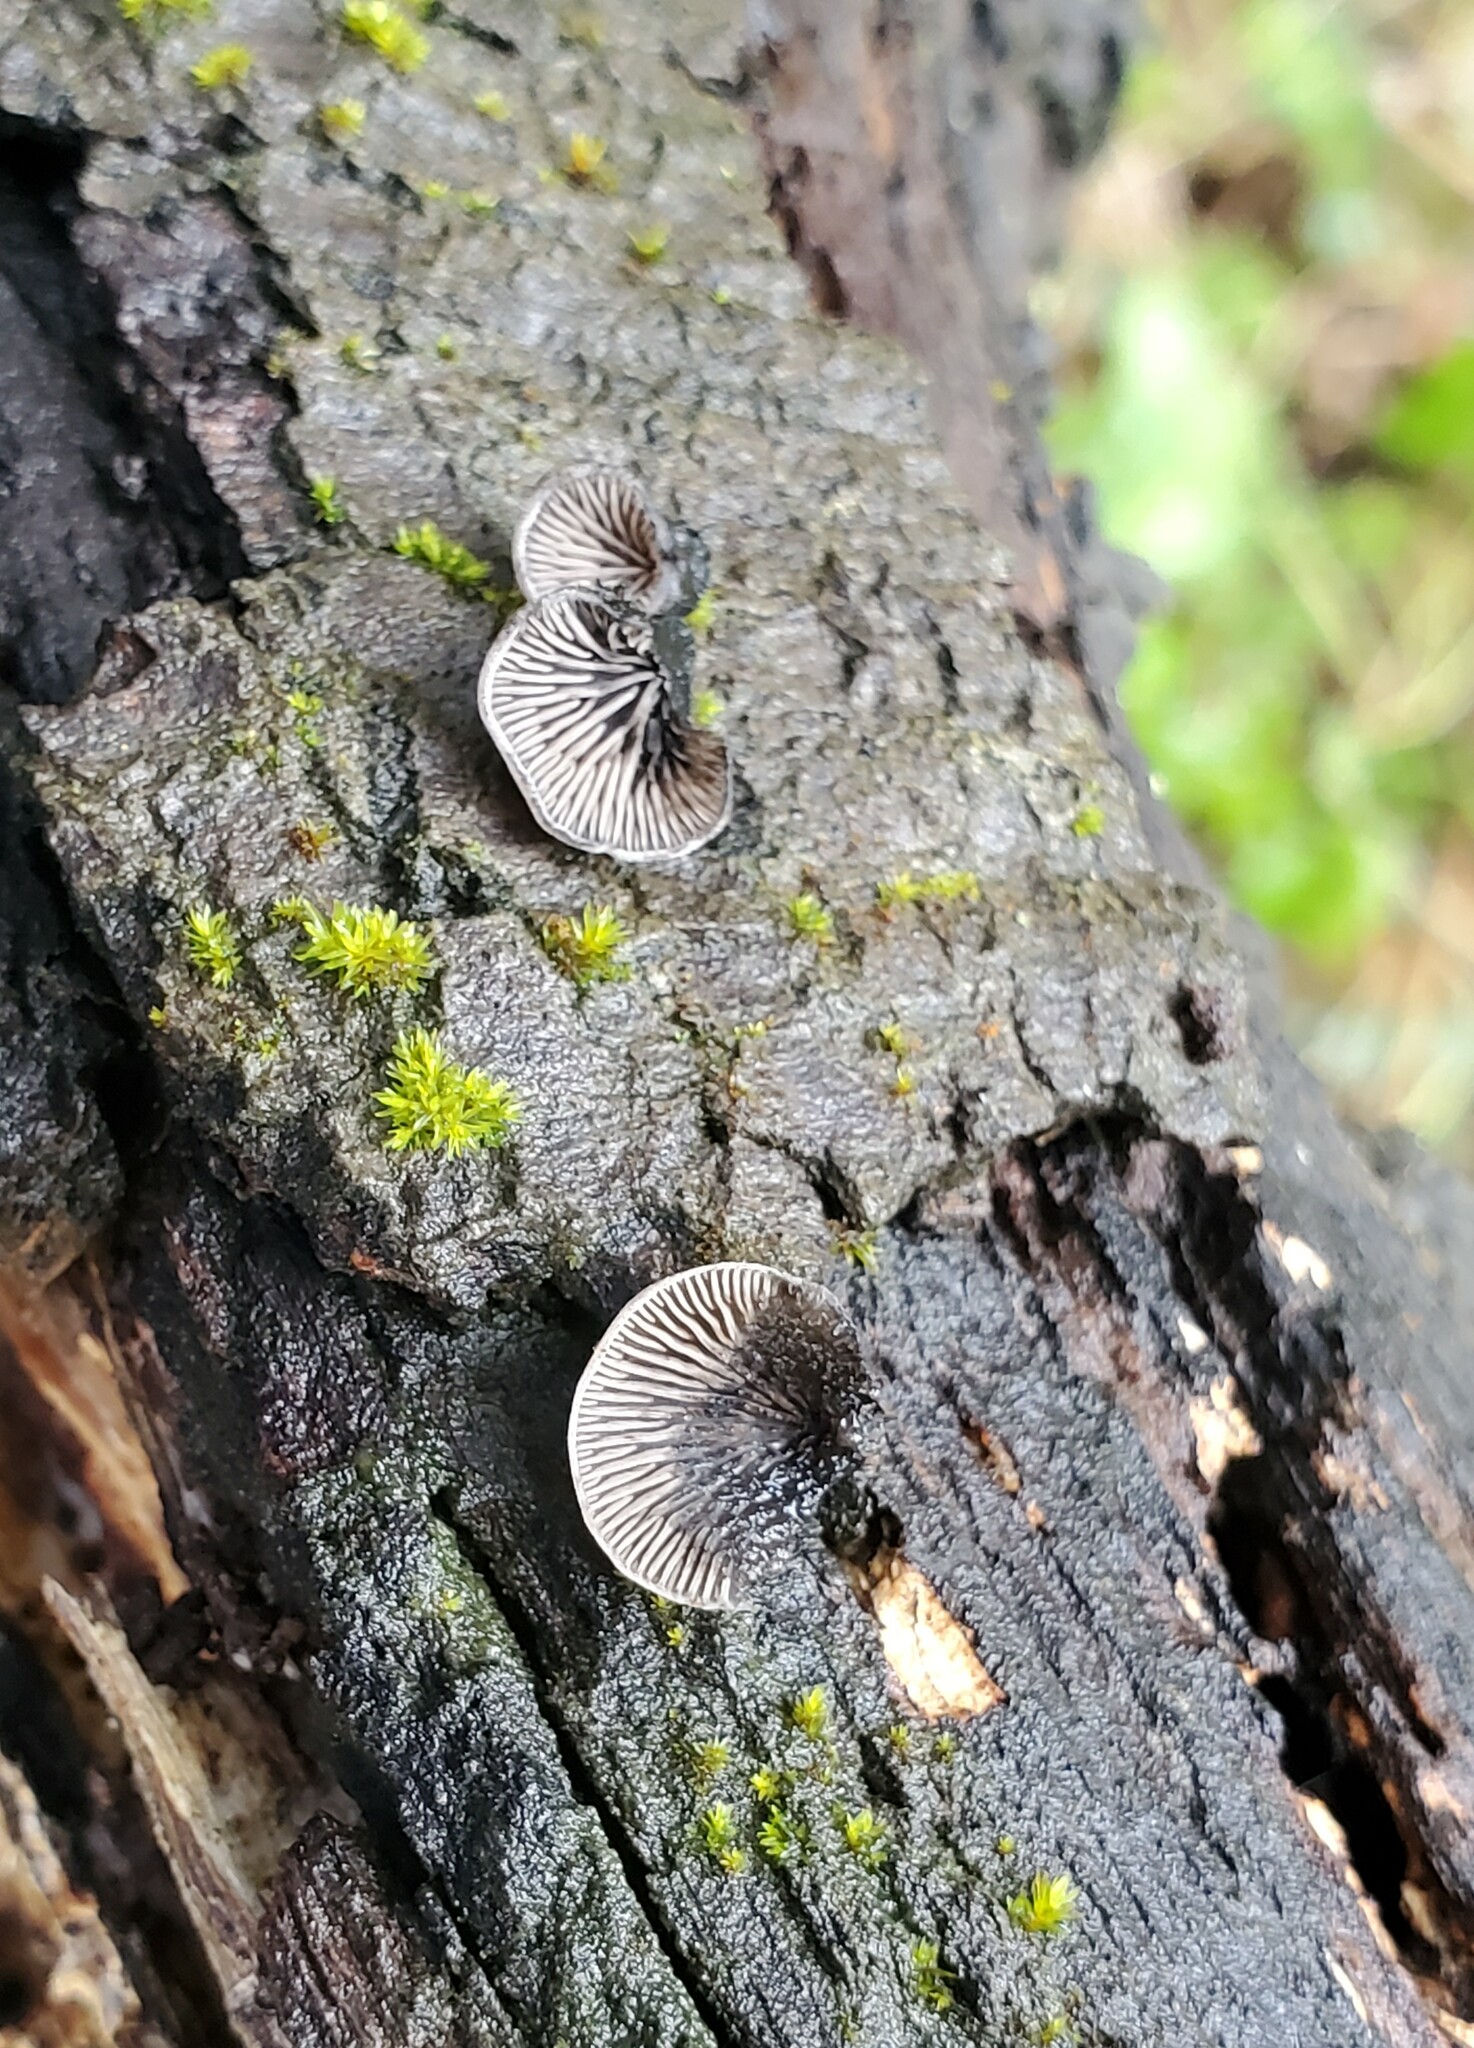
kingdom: Fungi
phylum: Basidiomycota
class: Agaricomycetes
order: Agaricales
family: Pleurotaceae
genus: Resupinatus
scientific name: Resupinatus applicatus
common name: Smoked oysterling
